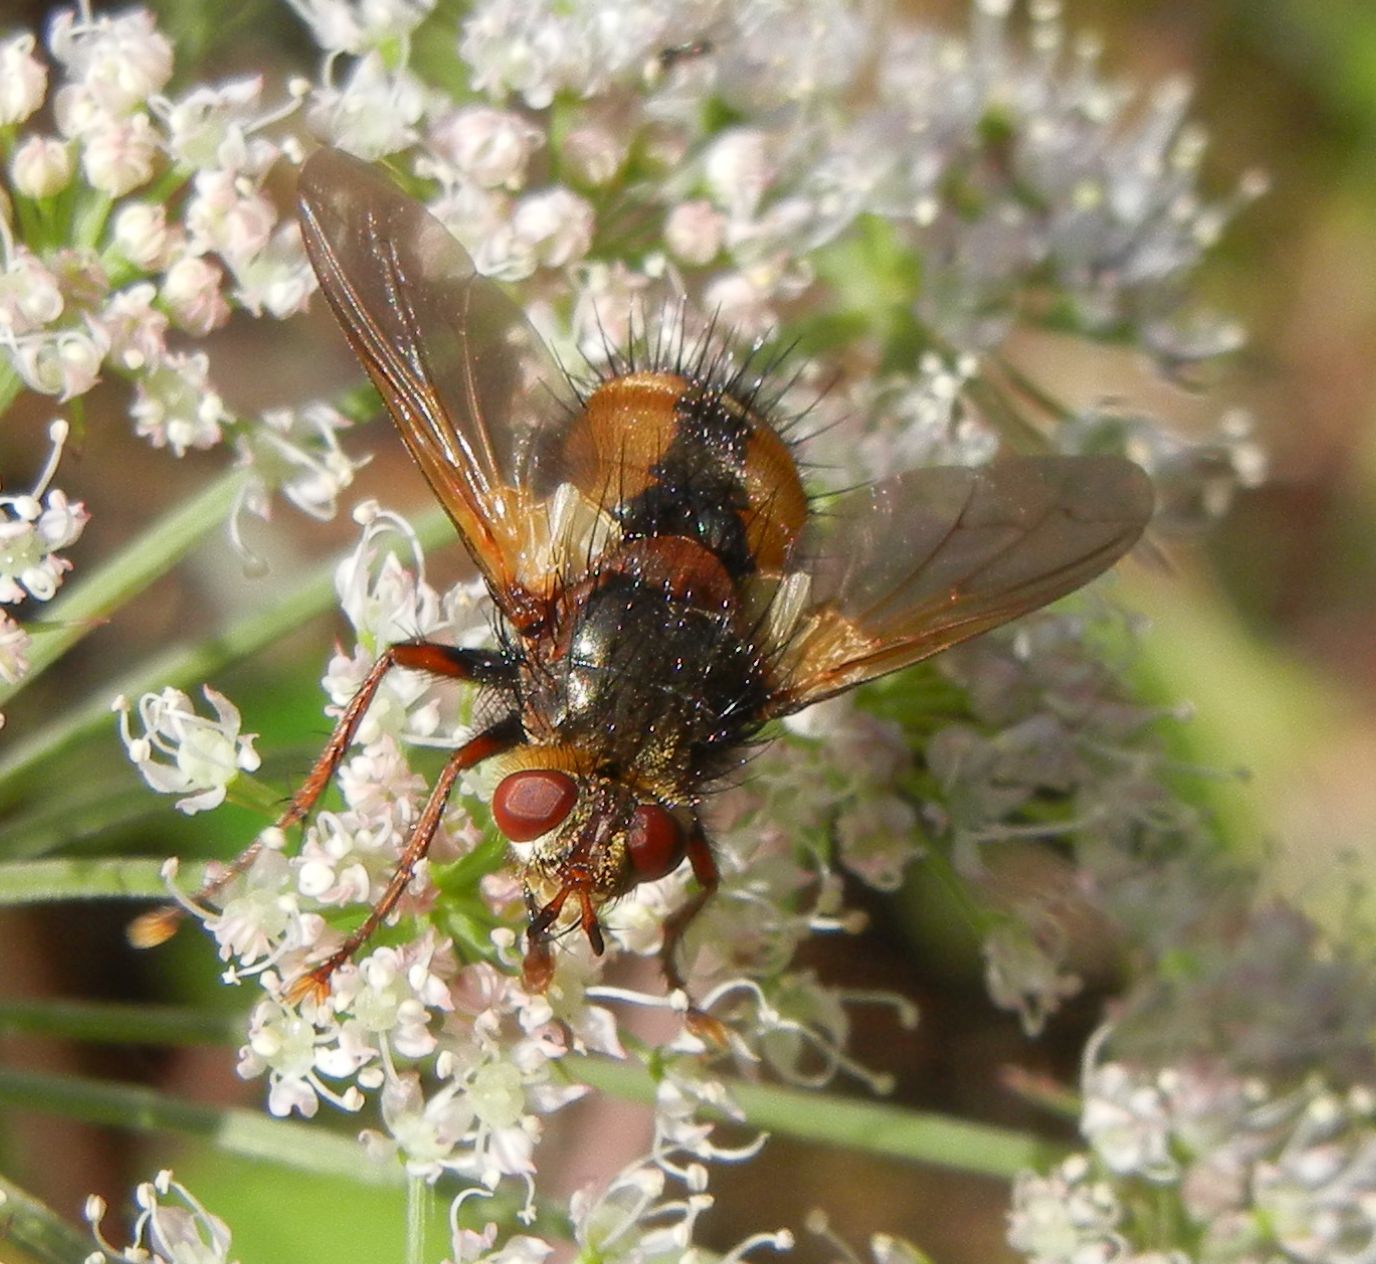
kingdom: Animalia
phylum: Arthropoda
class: Insecta
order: Diptera
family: Tachinidae
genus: Tachina
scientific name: Tachina fera
